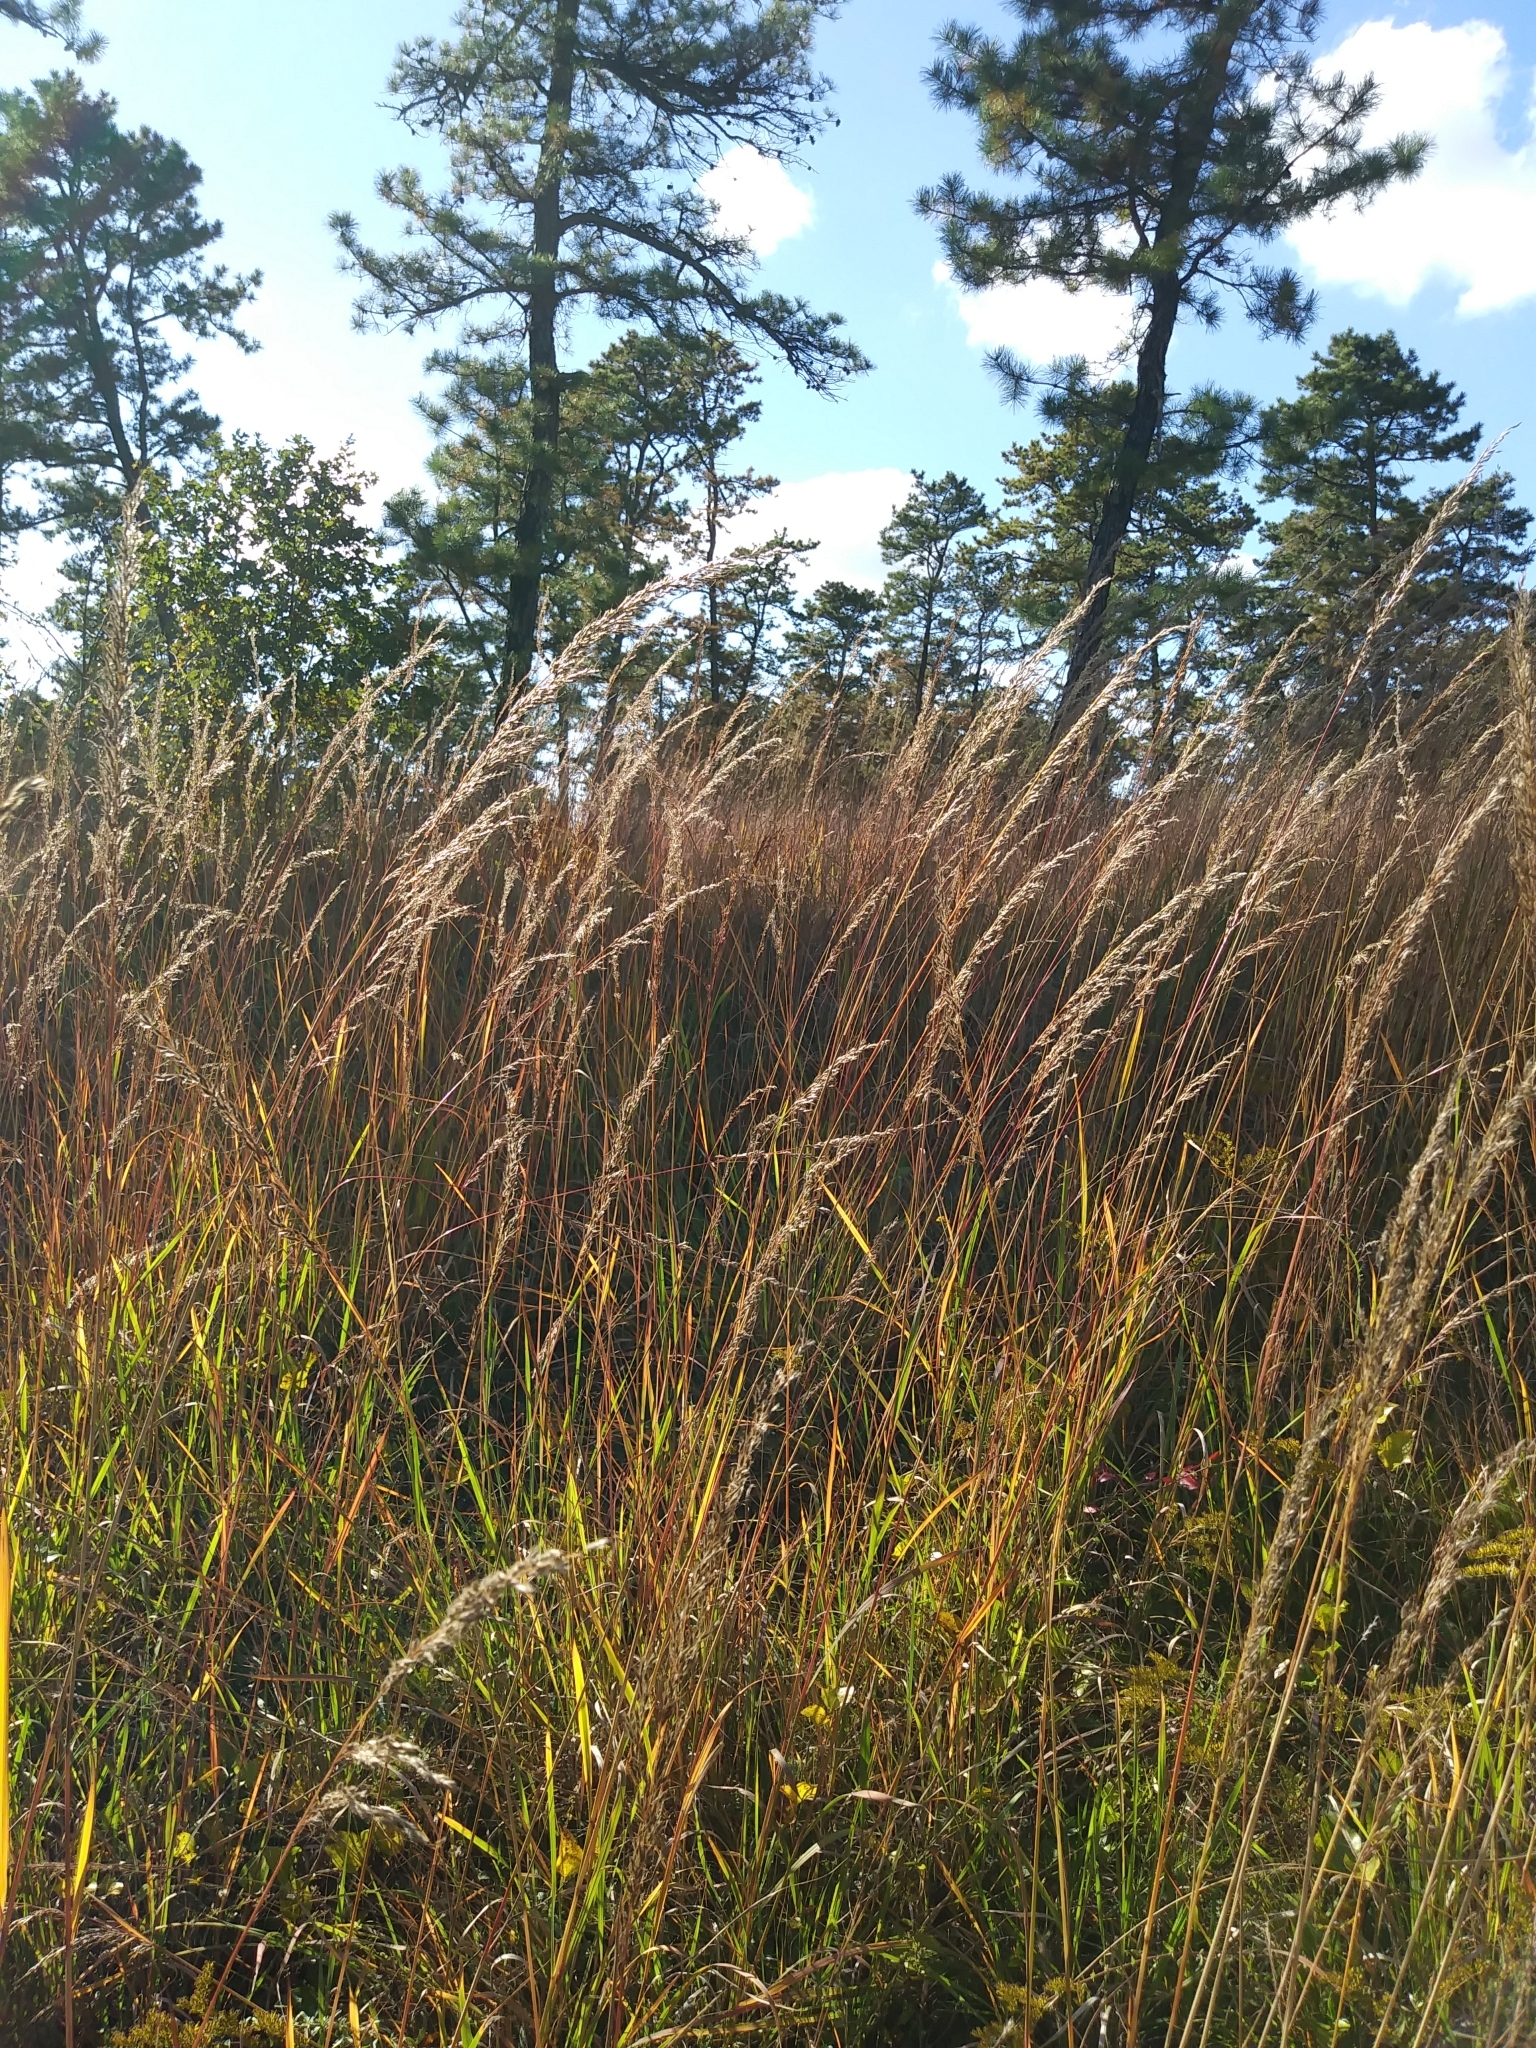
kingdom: Plantae
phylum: Tracheophyta
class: Liliopsida
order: Poales
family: Poaceae
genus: Sorghastrum
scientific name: Sorghastrum nutans
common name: Indian grass
